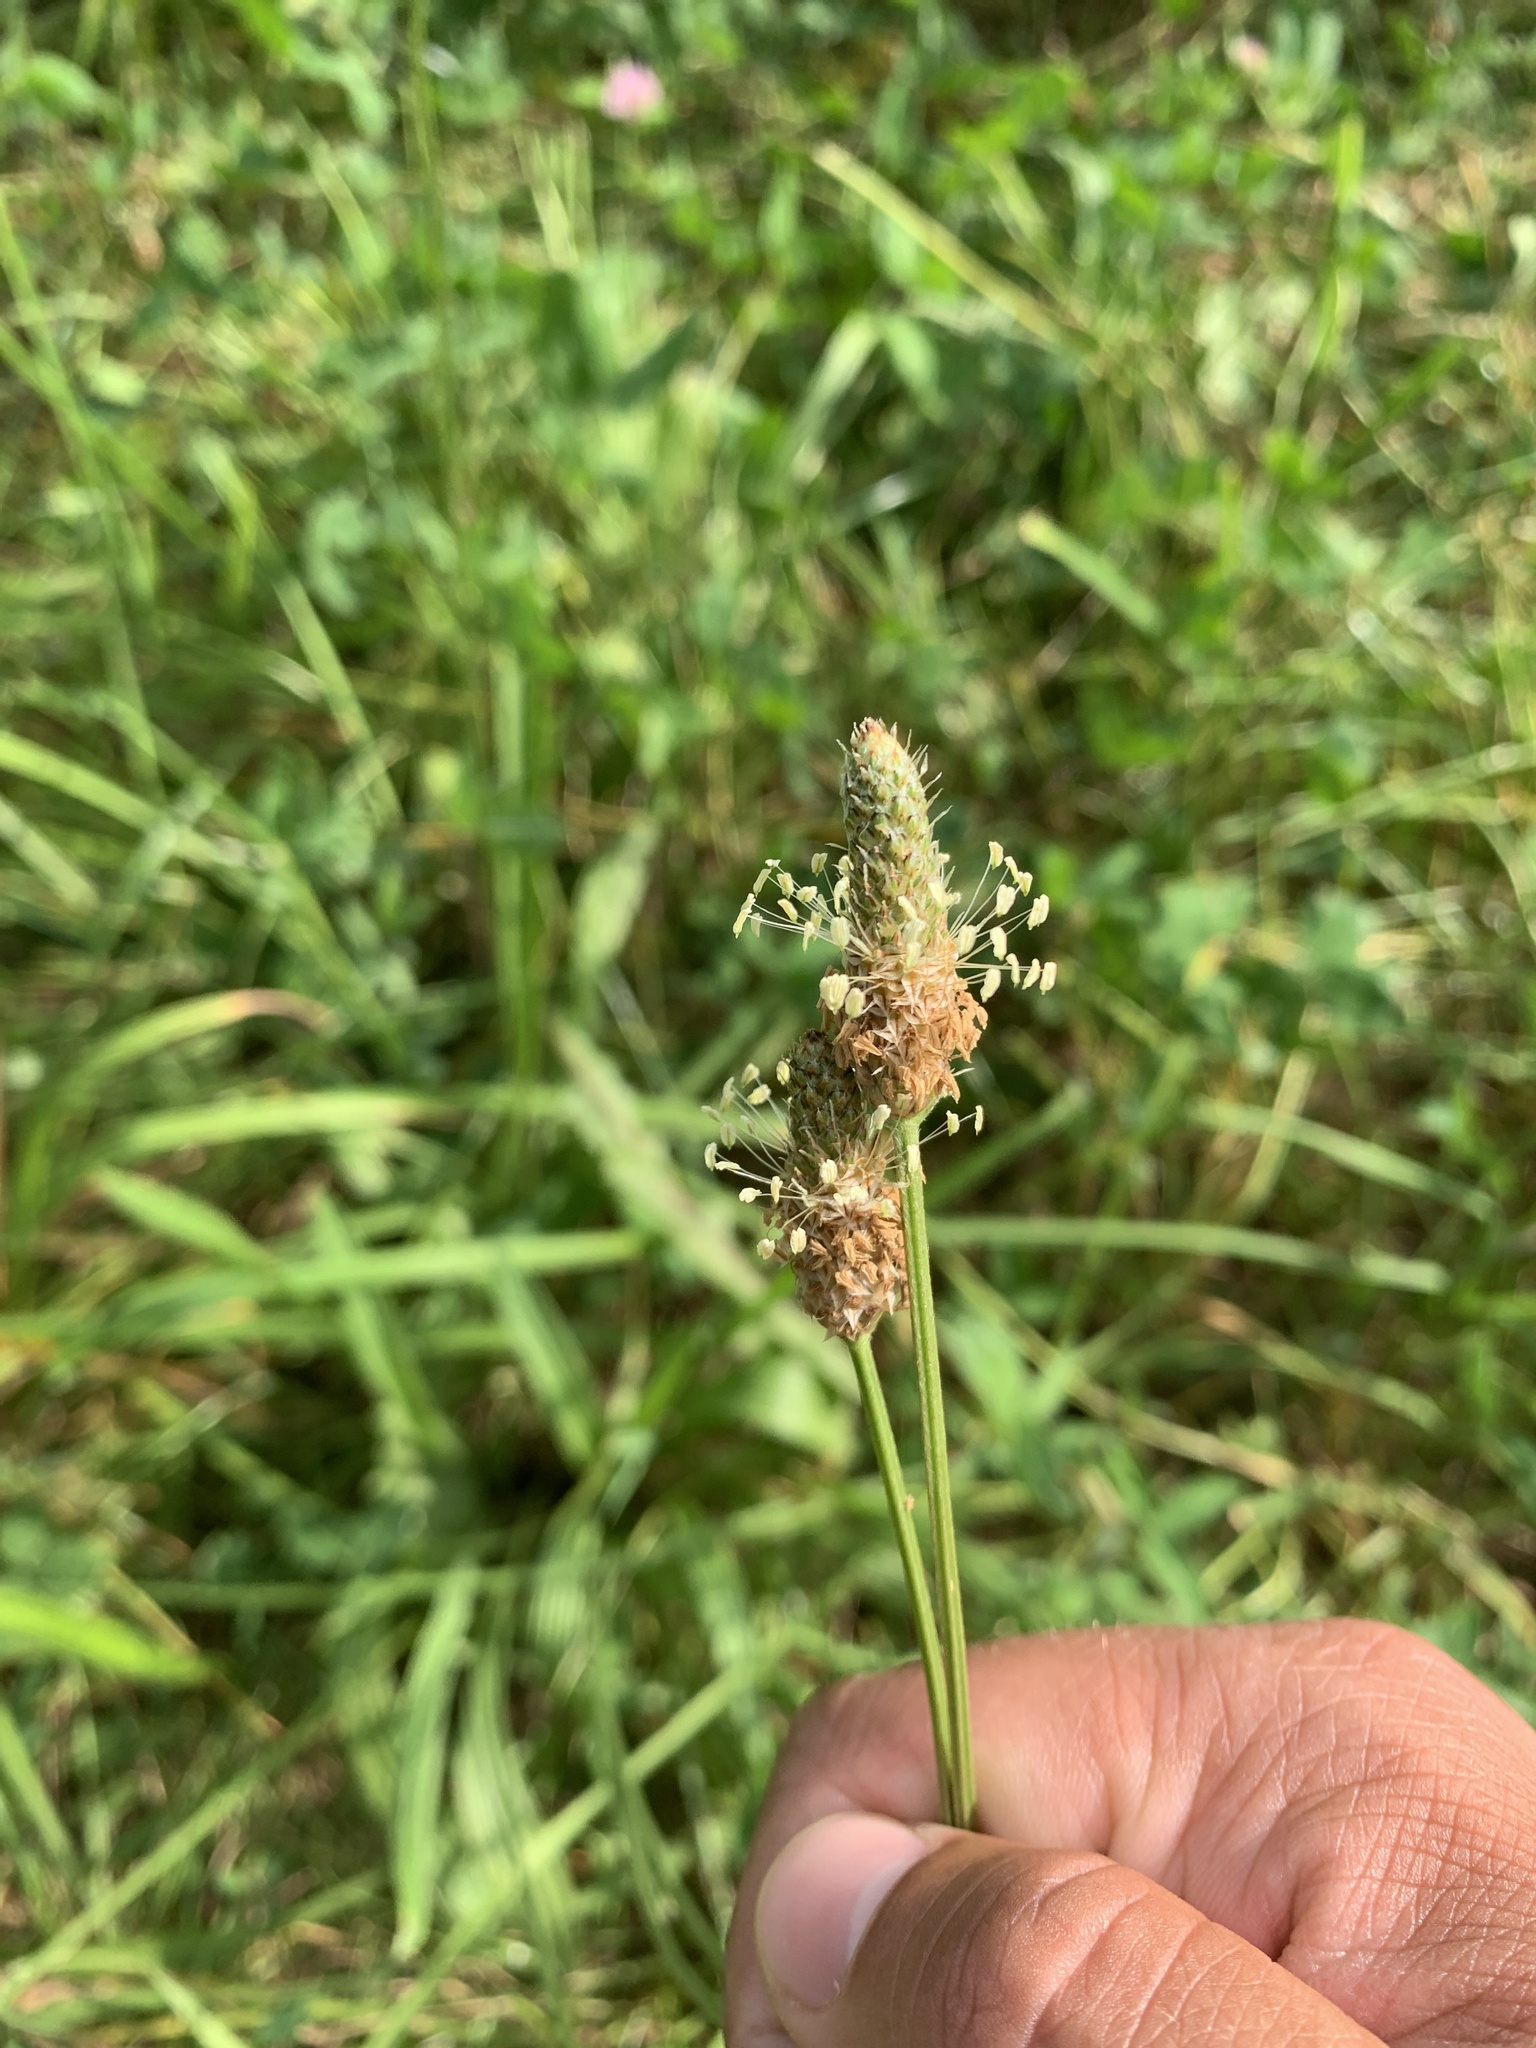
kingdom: Plantae
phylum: Tracheophyta
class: Magnoliopsida
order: Lamiales
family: Plantaginaceae
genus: Plantago
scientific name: Plantago lanceolata
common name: Ribwort plantain
